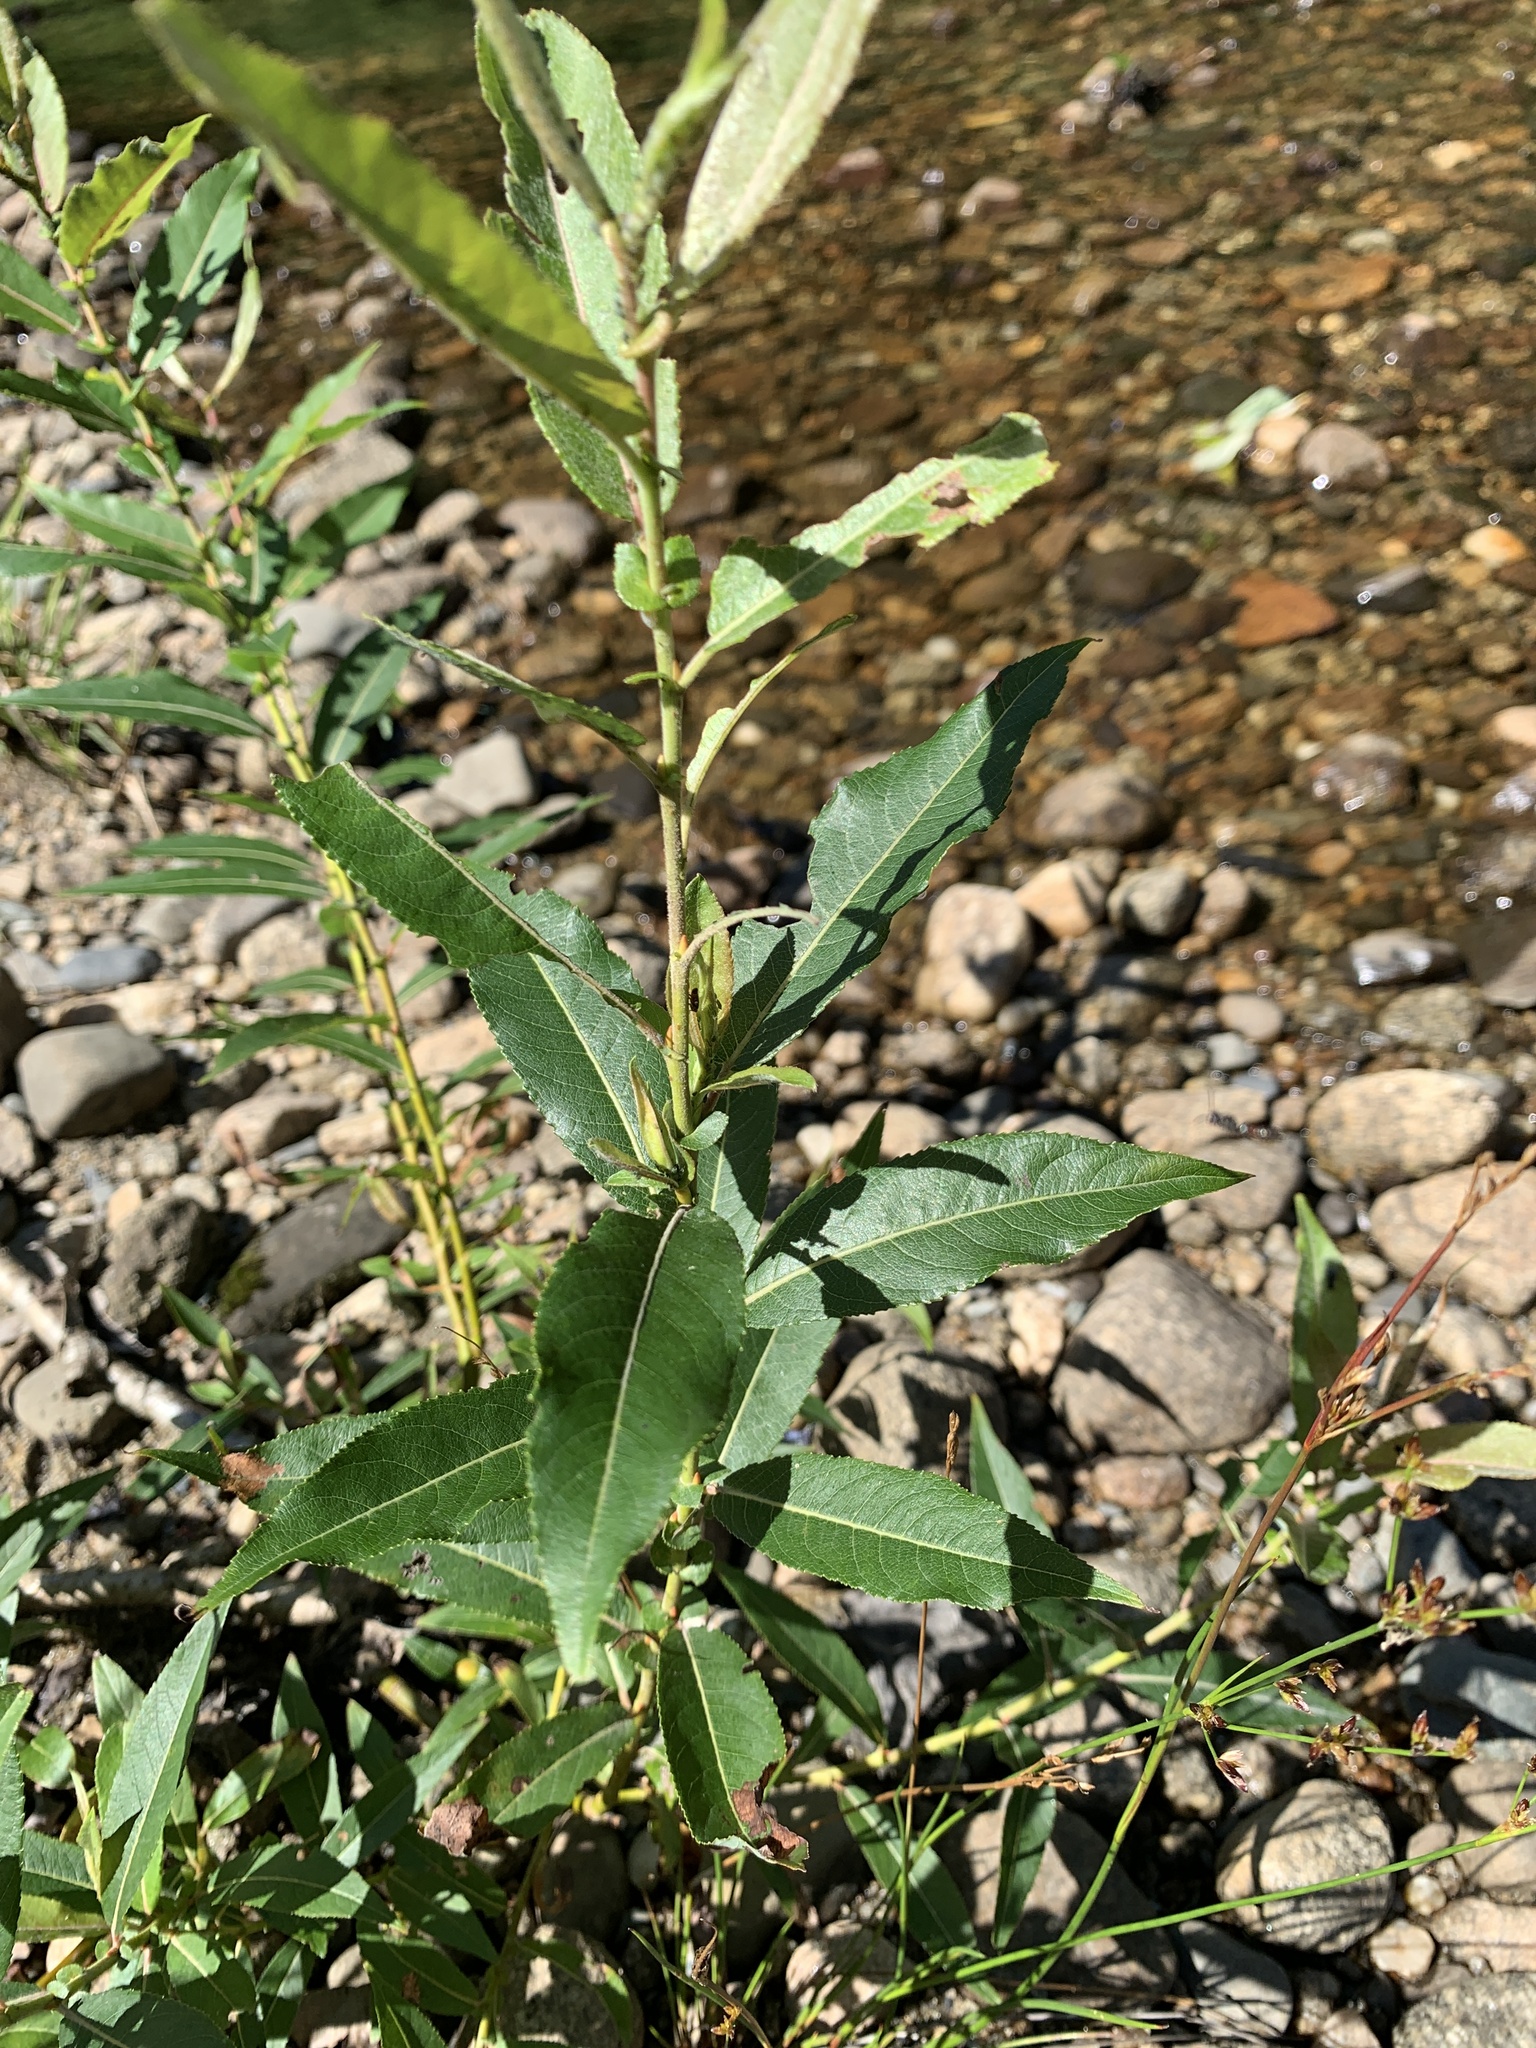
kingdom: Plantae
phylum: Tracheophyta
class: Magnoliopsida
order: Malpighiales
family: Salicaceae
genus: Salix
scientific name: Salix eriocephala
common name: Heart-leaved willow
